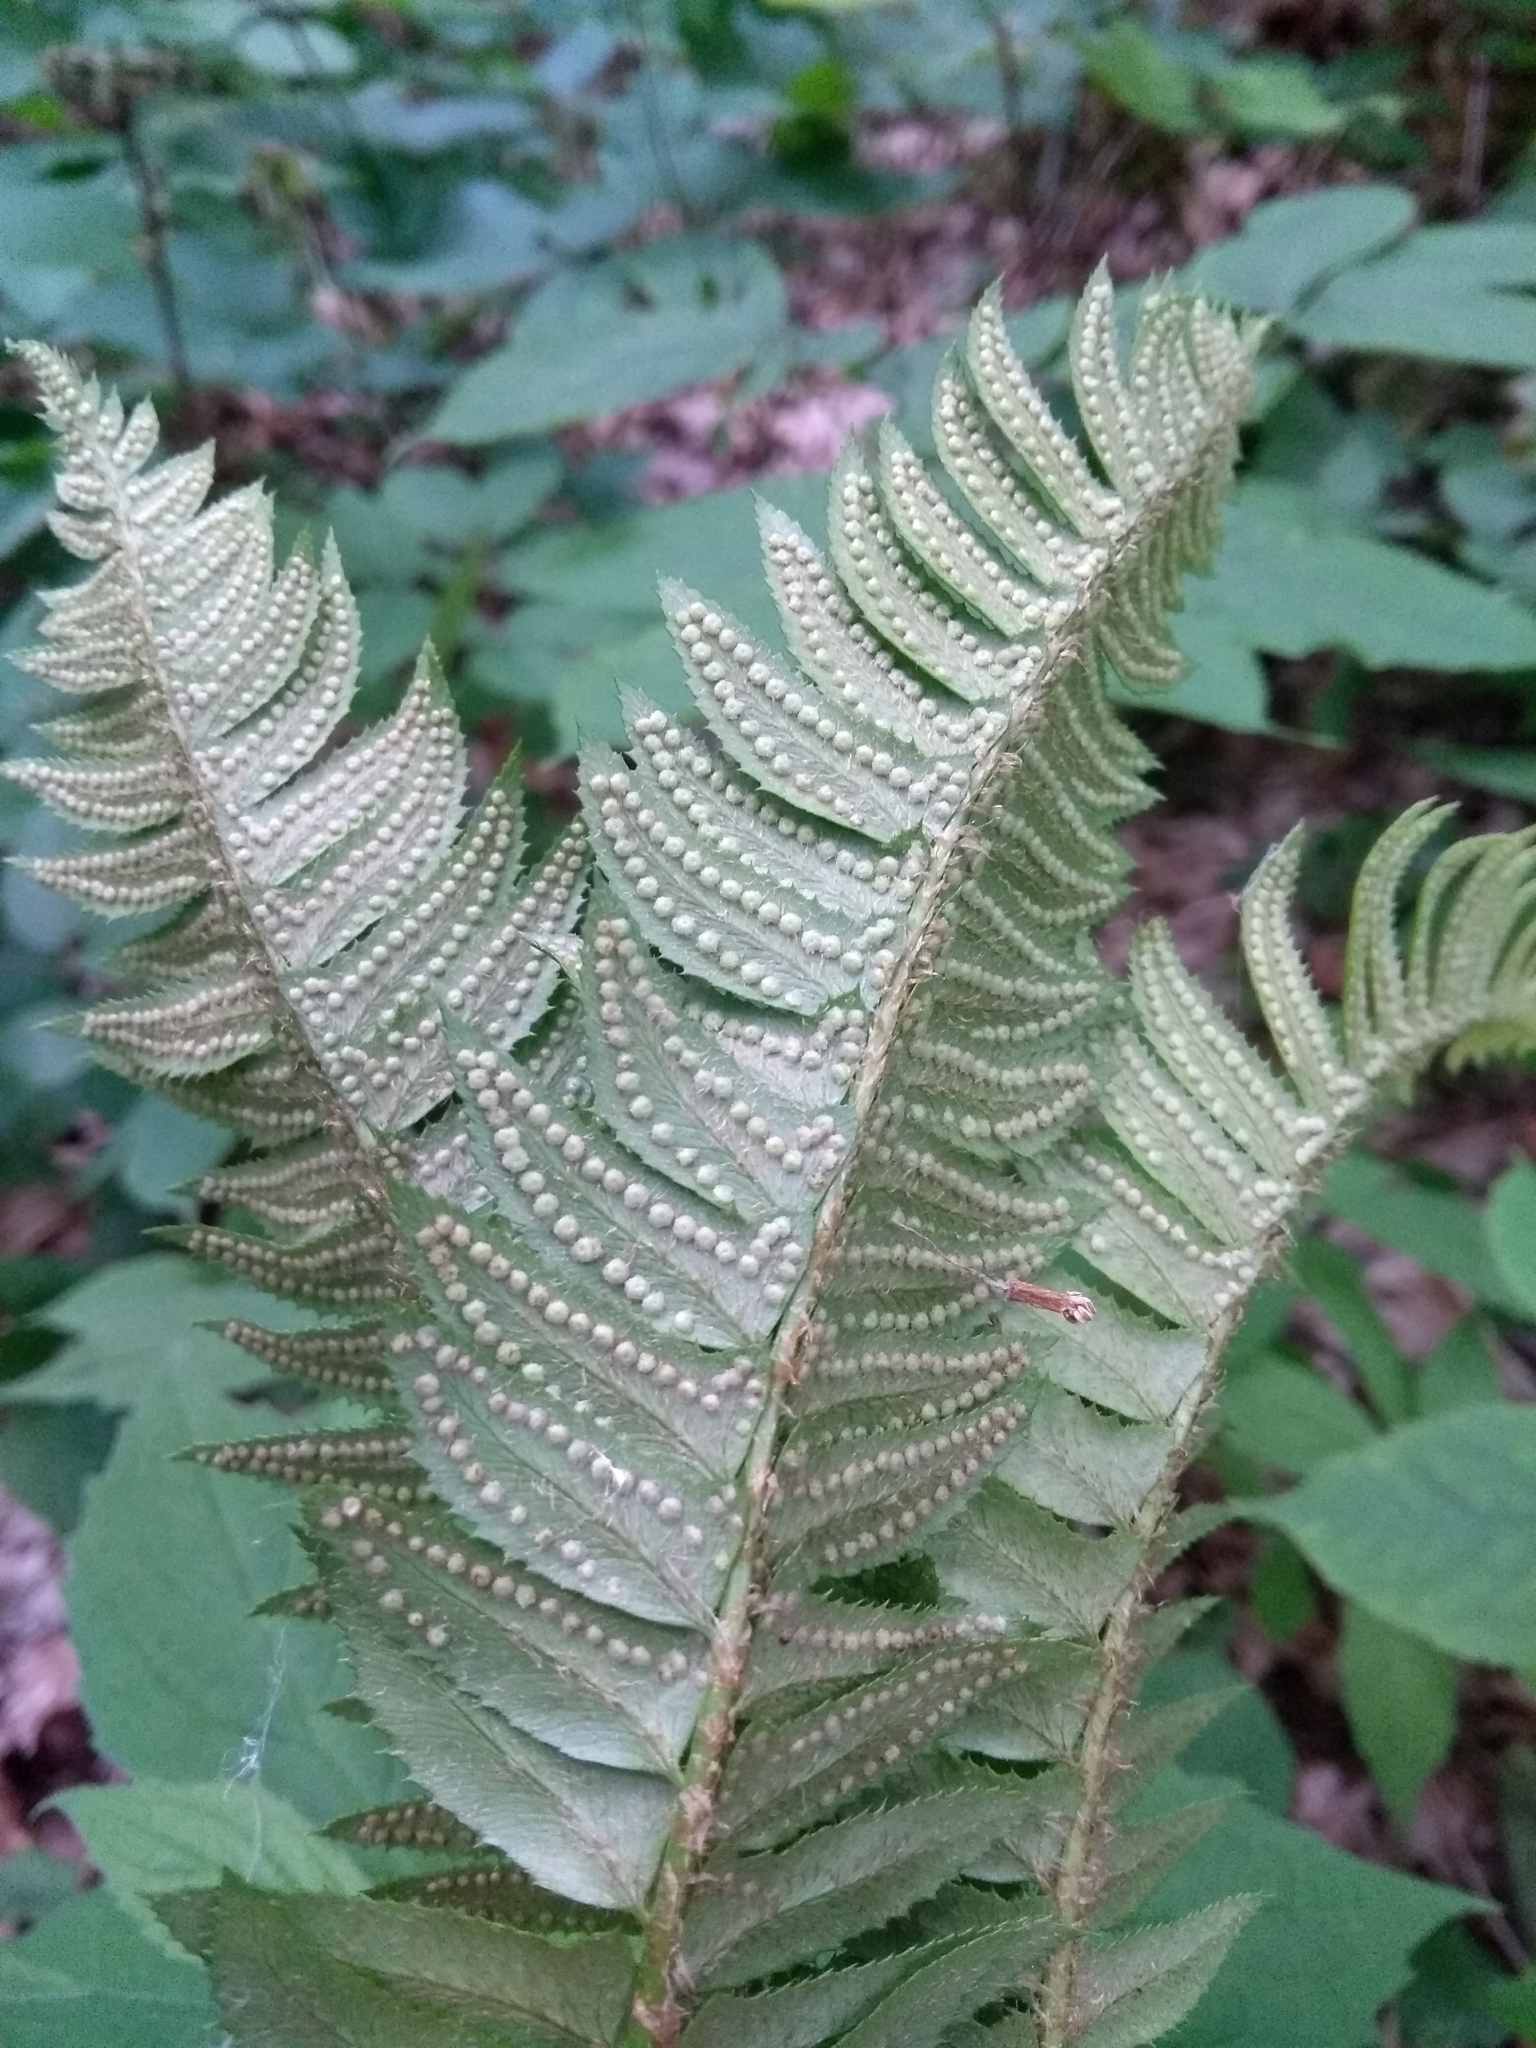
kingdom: Plantae
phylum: Tracheophyta
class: Polypodiopsida
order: Polypodiales
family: Dryopteridaceae
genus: Polystichum
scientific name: Polystichum lonchitis
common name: Holly fern
